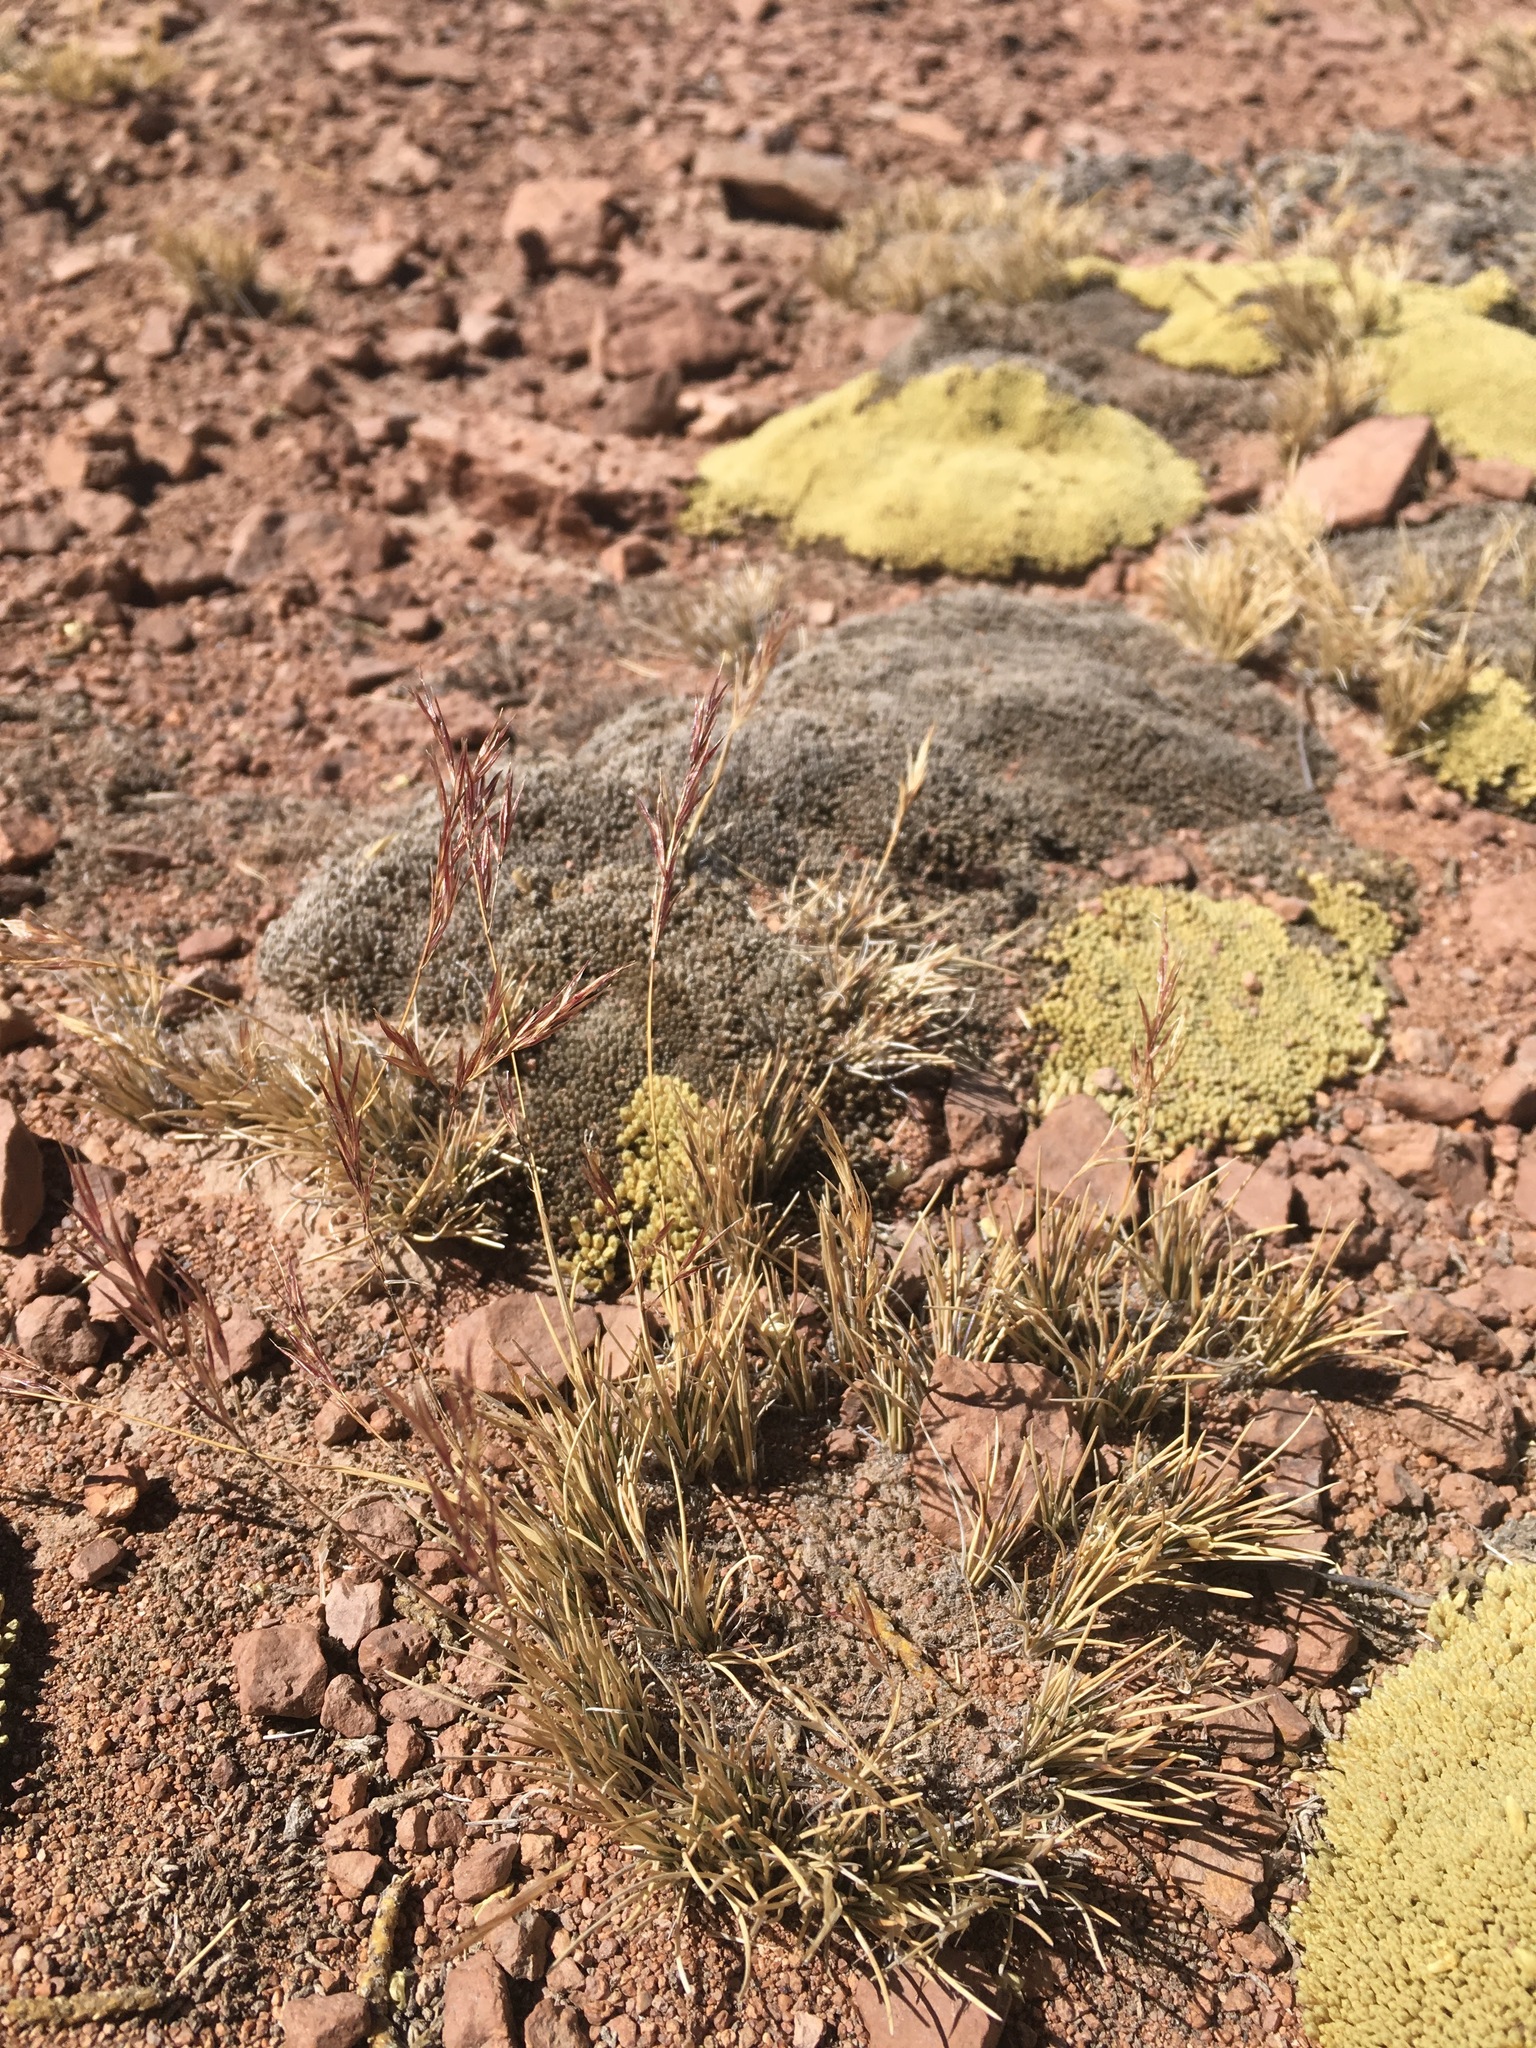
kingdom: Plantae
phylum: Tracheophyta
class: Liliopsida
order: Poales
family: Poaceae
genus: Nassella
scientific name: Nassella nardoides
